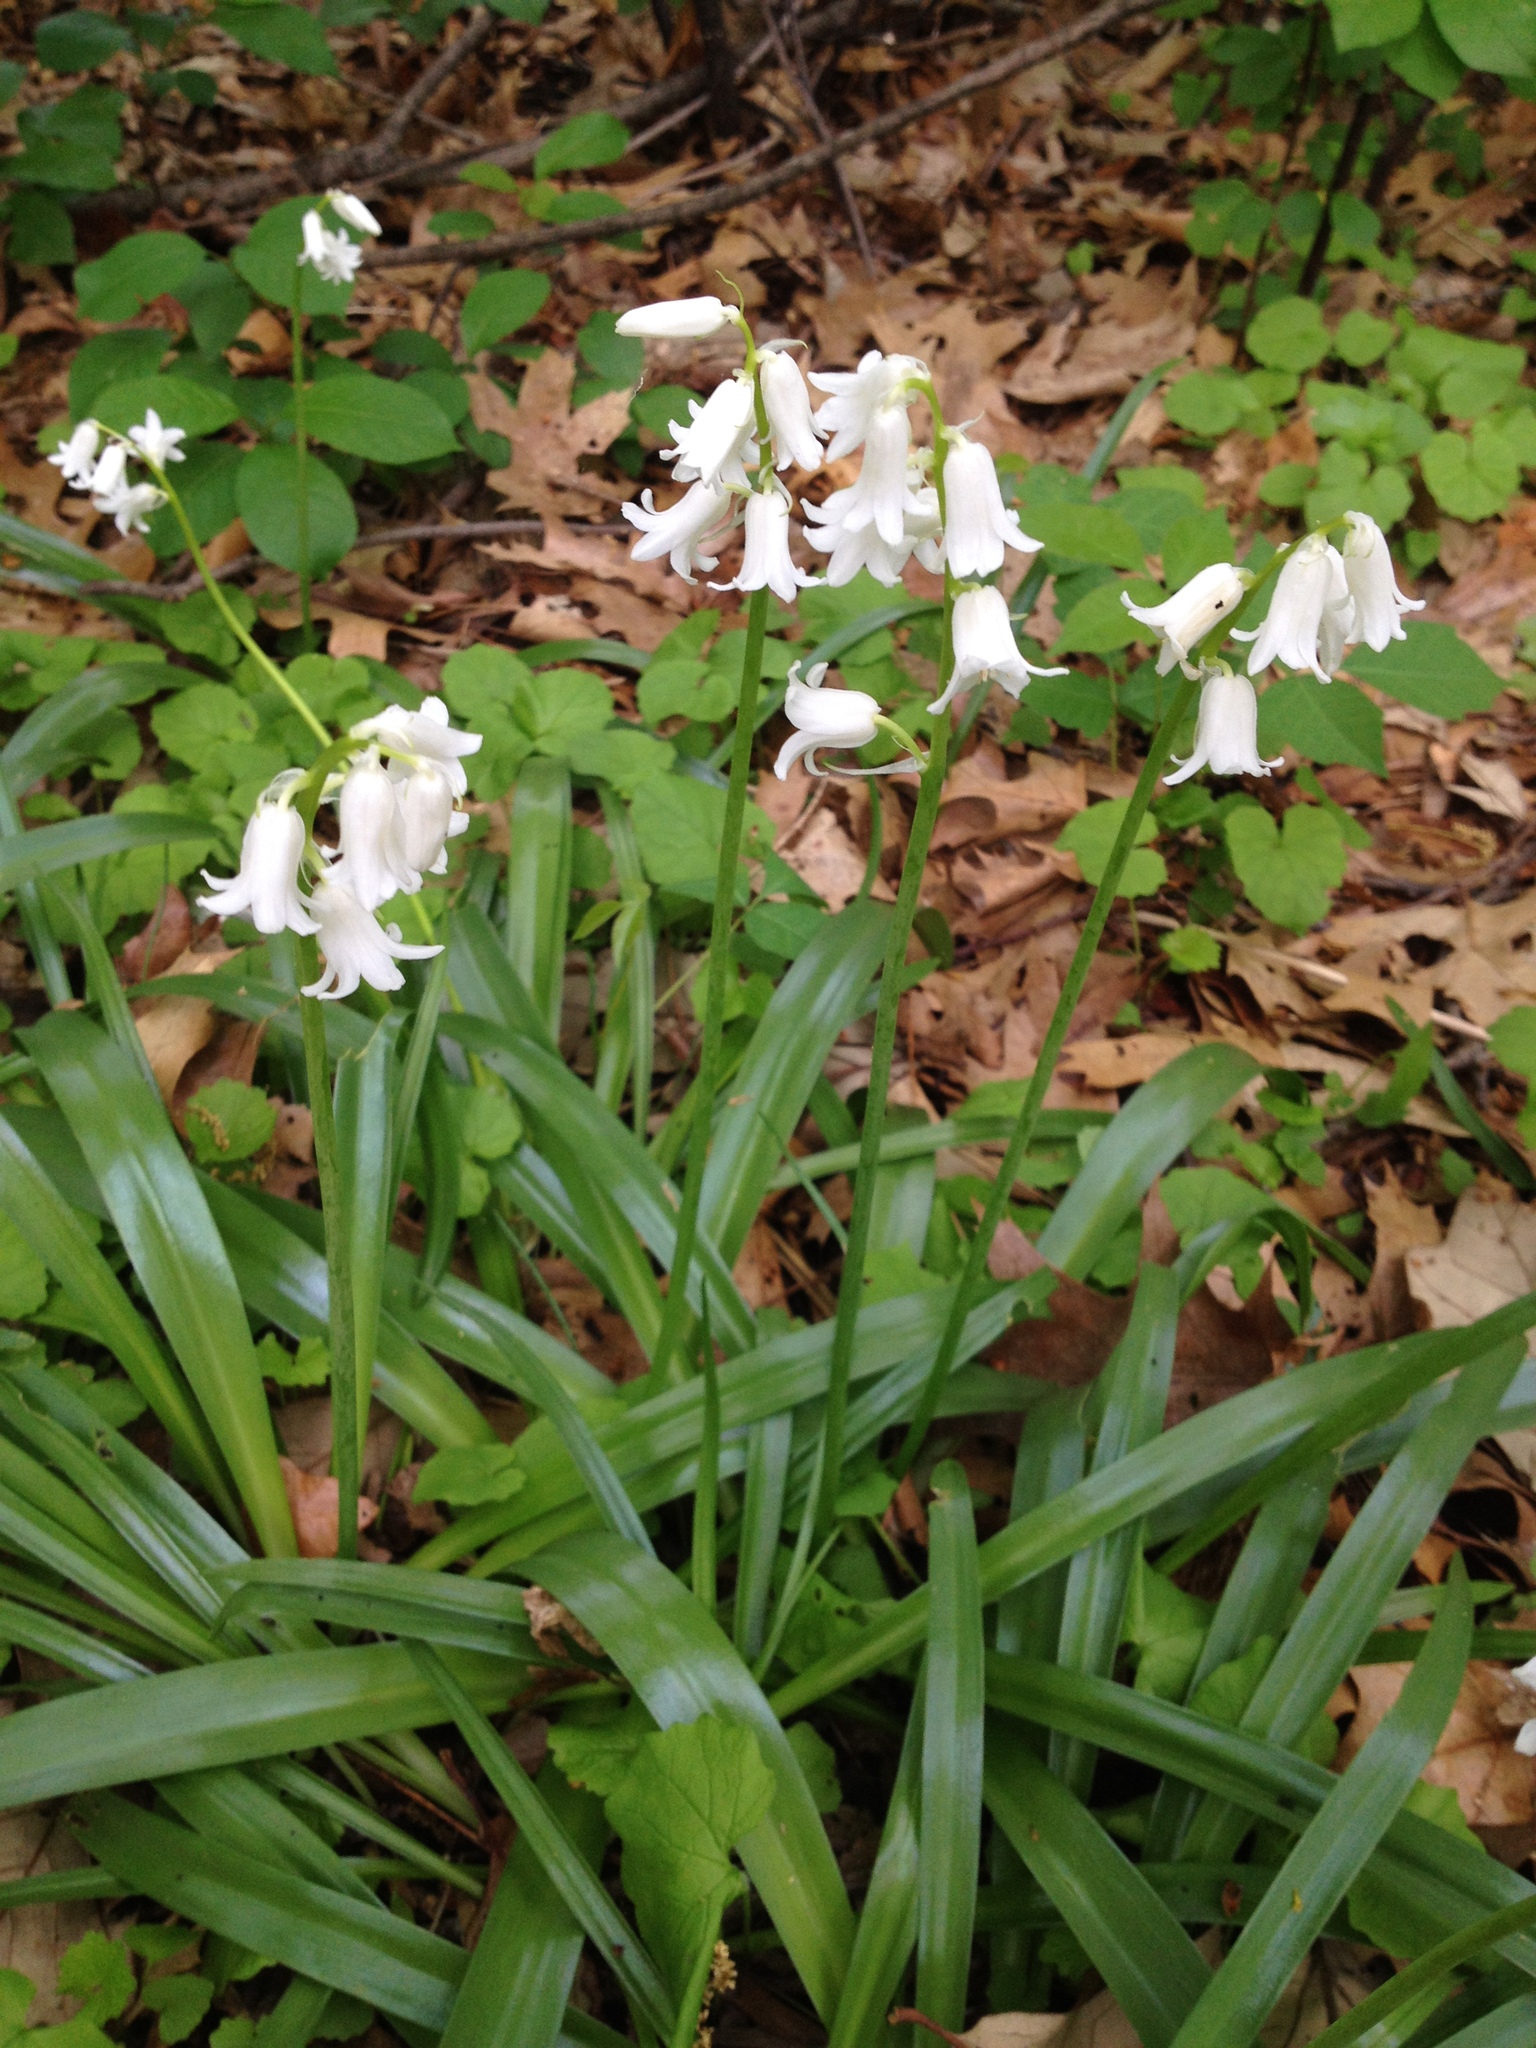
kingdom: Plantae
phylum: Tracheophyta
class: Liliopsida
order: Asparagales
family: Asparagaceae
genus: Hyacinthoides
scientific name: Hyacinthoides massartiana
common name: Hyacinthoides
